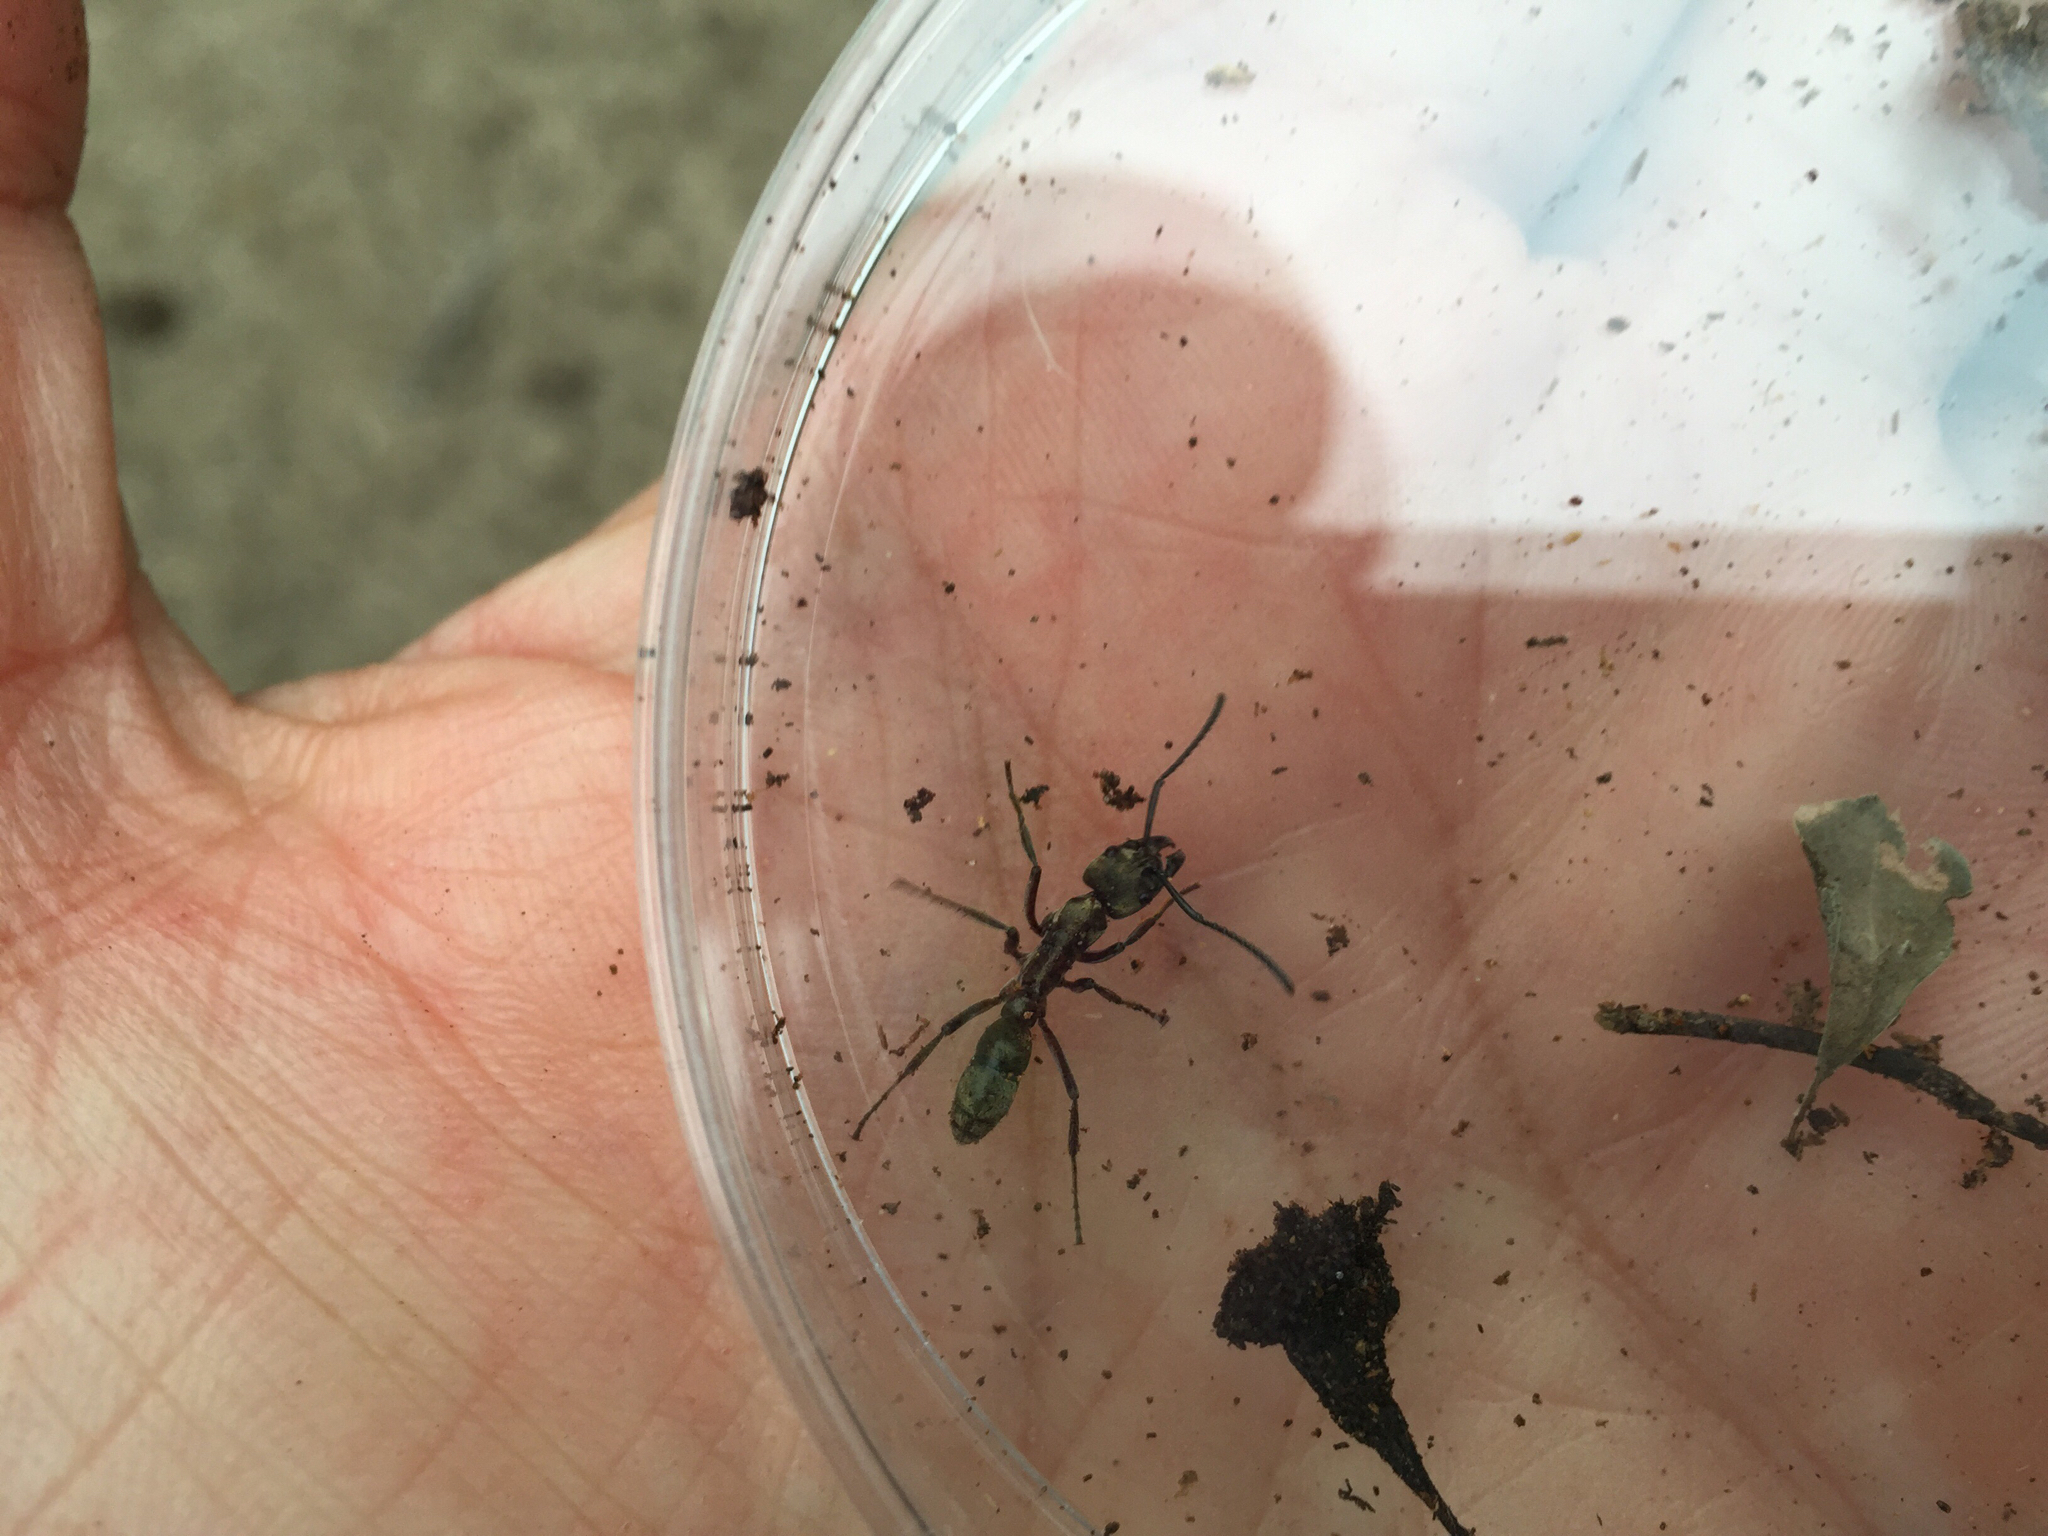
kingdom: Animalia
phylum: Arthropoda
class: Insecta
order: Hymenoptera
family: Formicidae
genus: Pachycondyla
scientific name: Pachycondyla villosa
